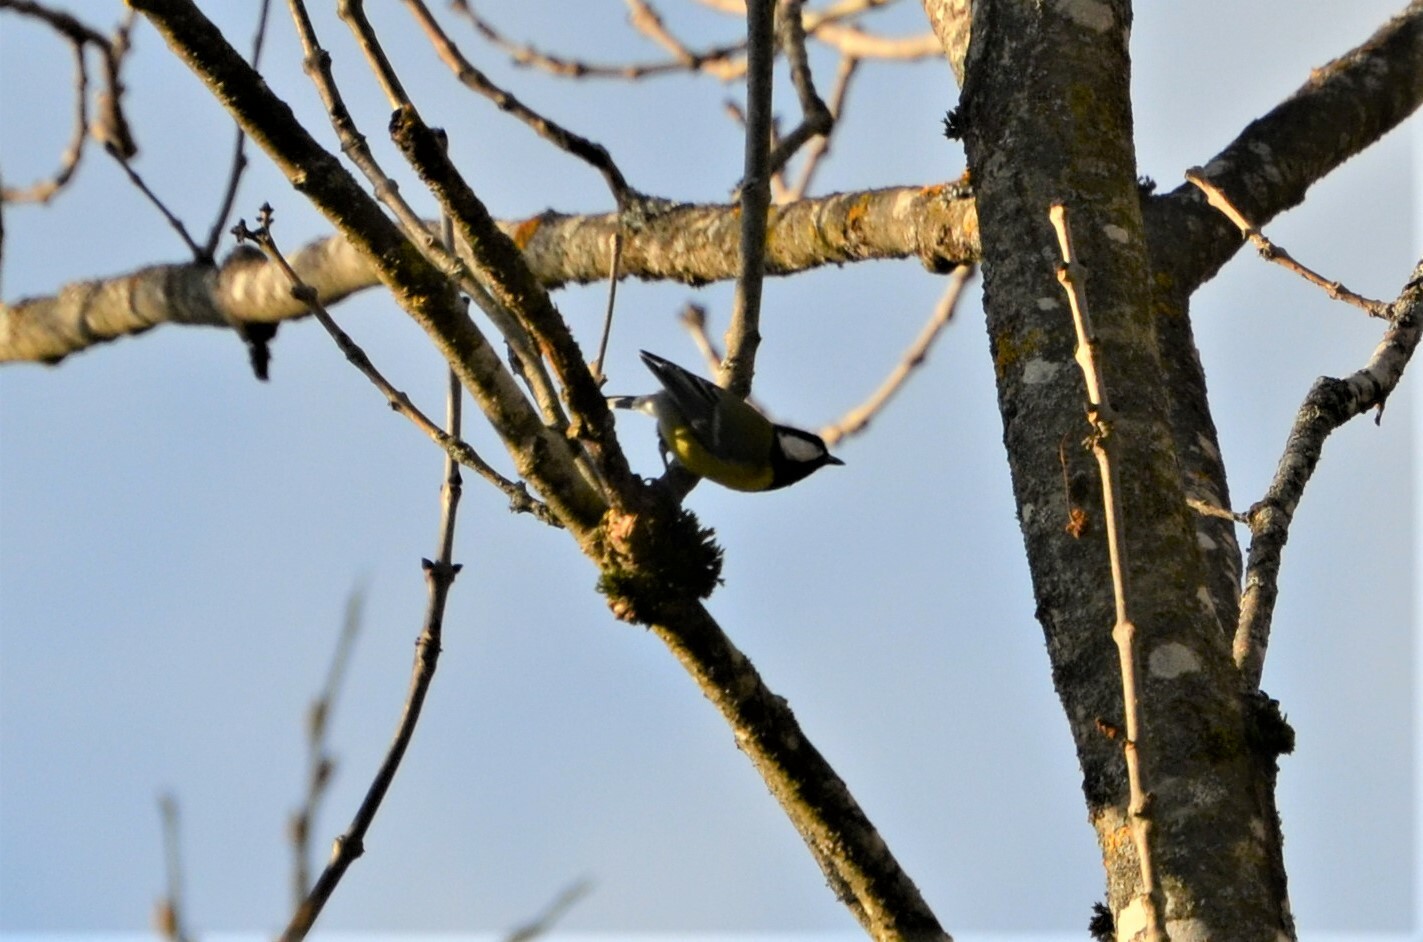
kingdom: Animalia
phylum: Chordata
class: Aves
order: Passeriformes
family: Paridae
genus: Parus
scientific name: Parus major
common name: Great tit
